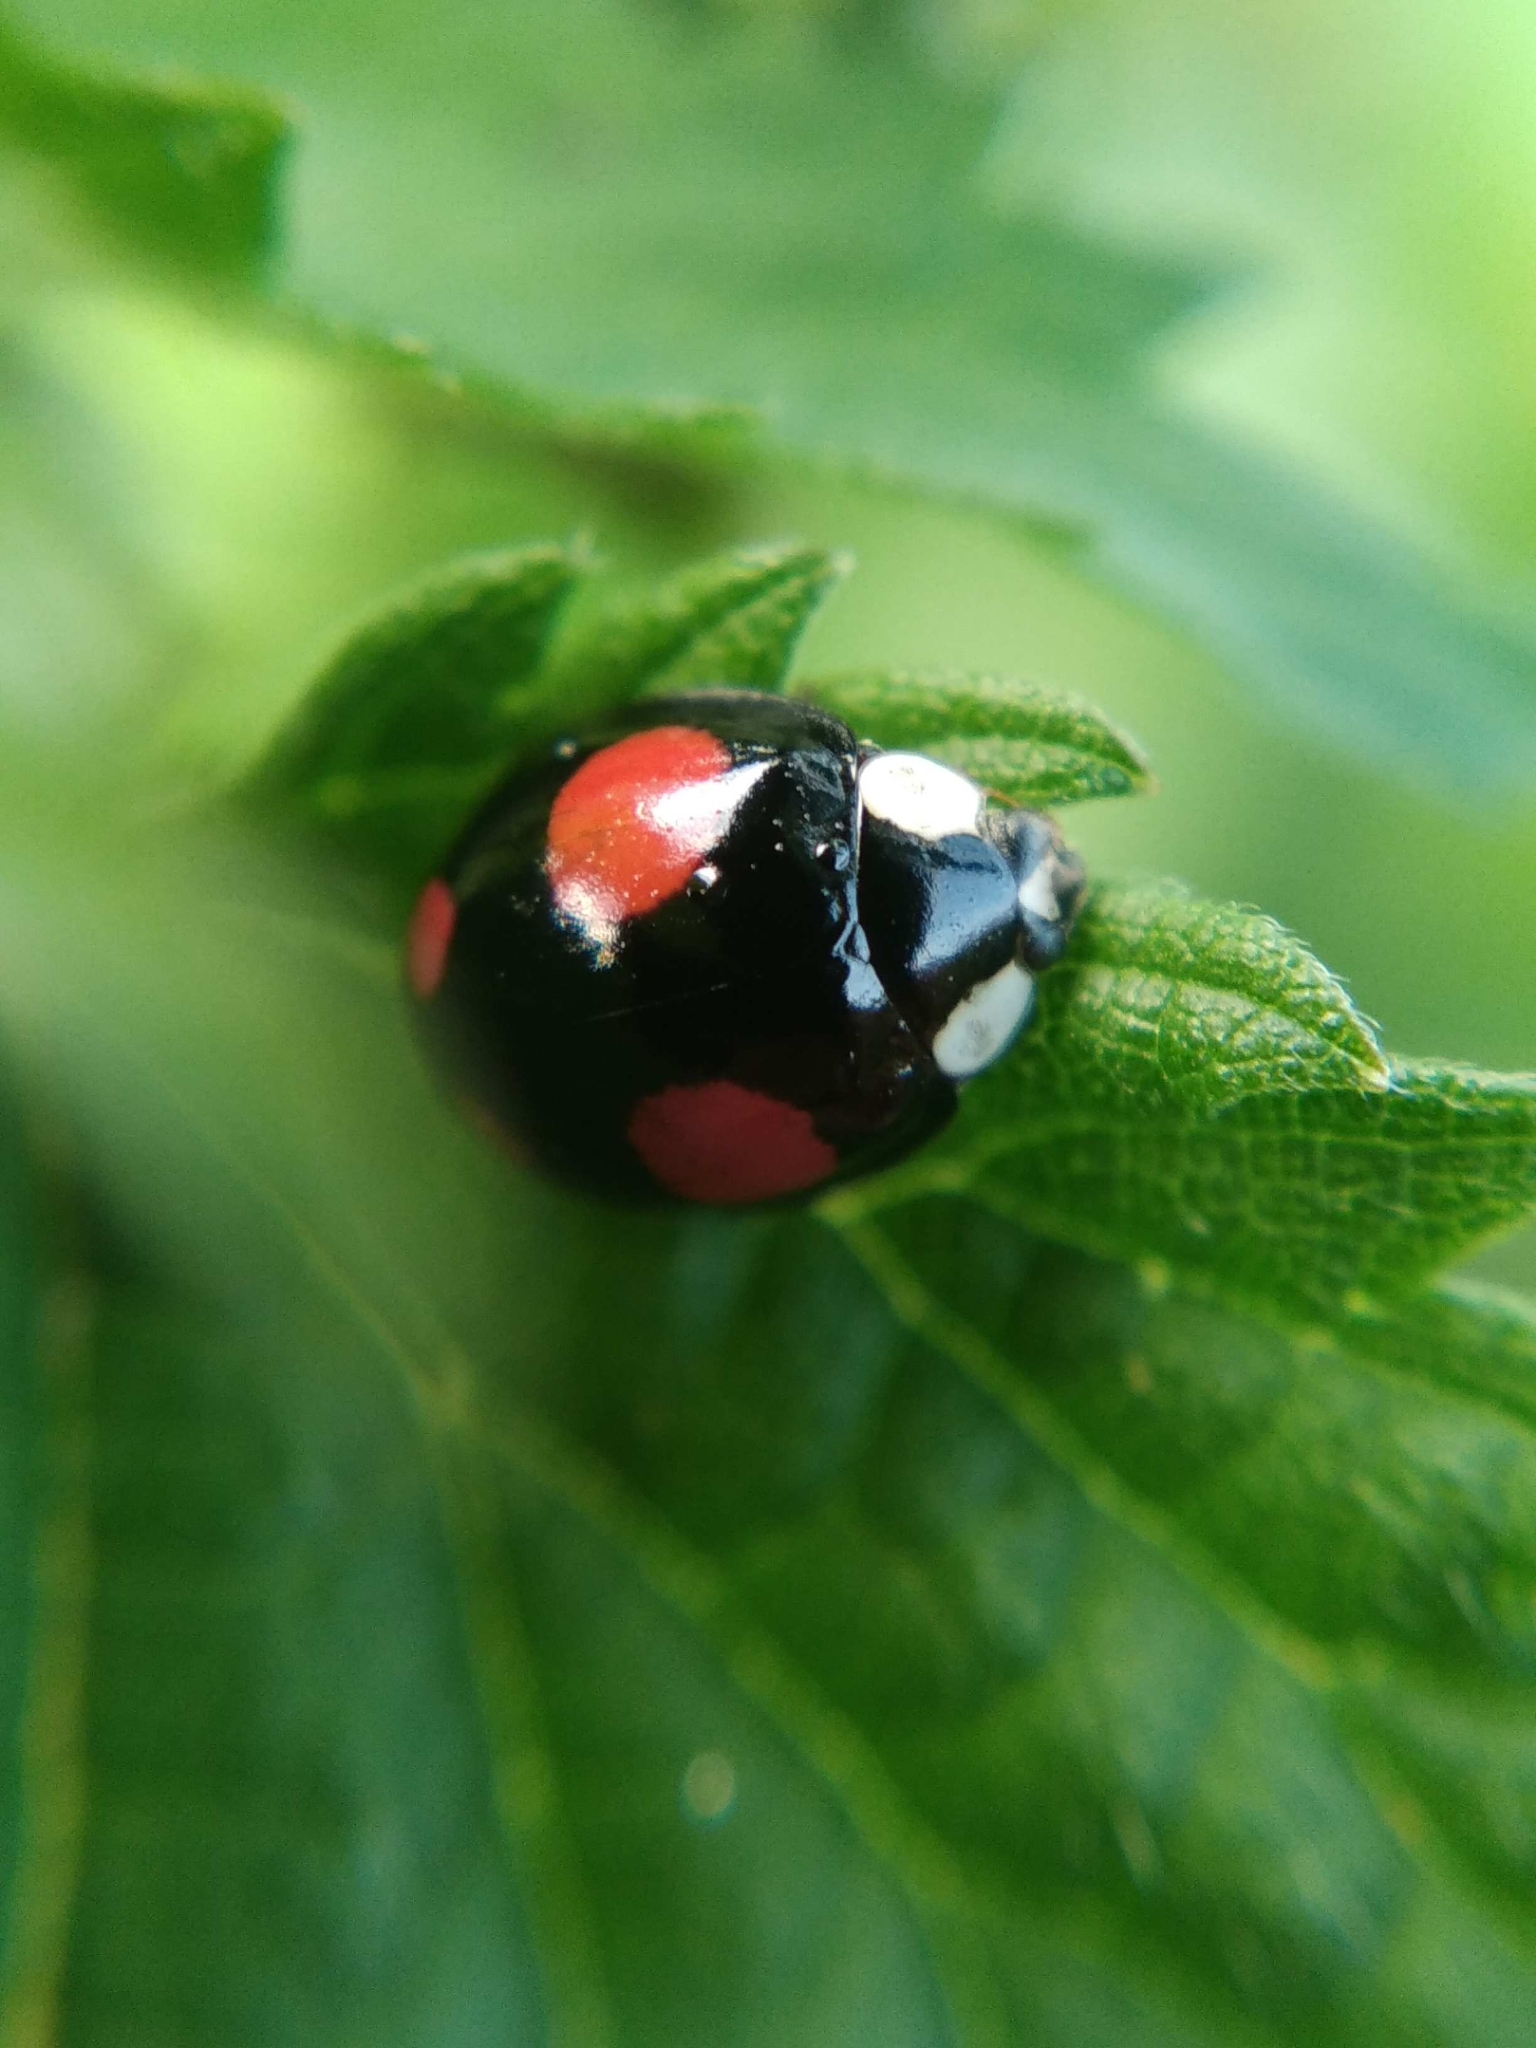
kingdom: Animalia
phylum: Arthropoda
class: Insecta
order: Coleoptera
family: Coccinellidae
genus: Harmonia
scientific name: Harmonia axyridis
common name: Harlequin ladybird
